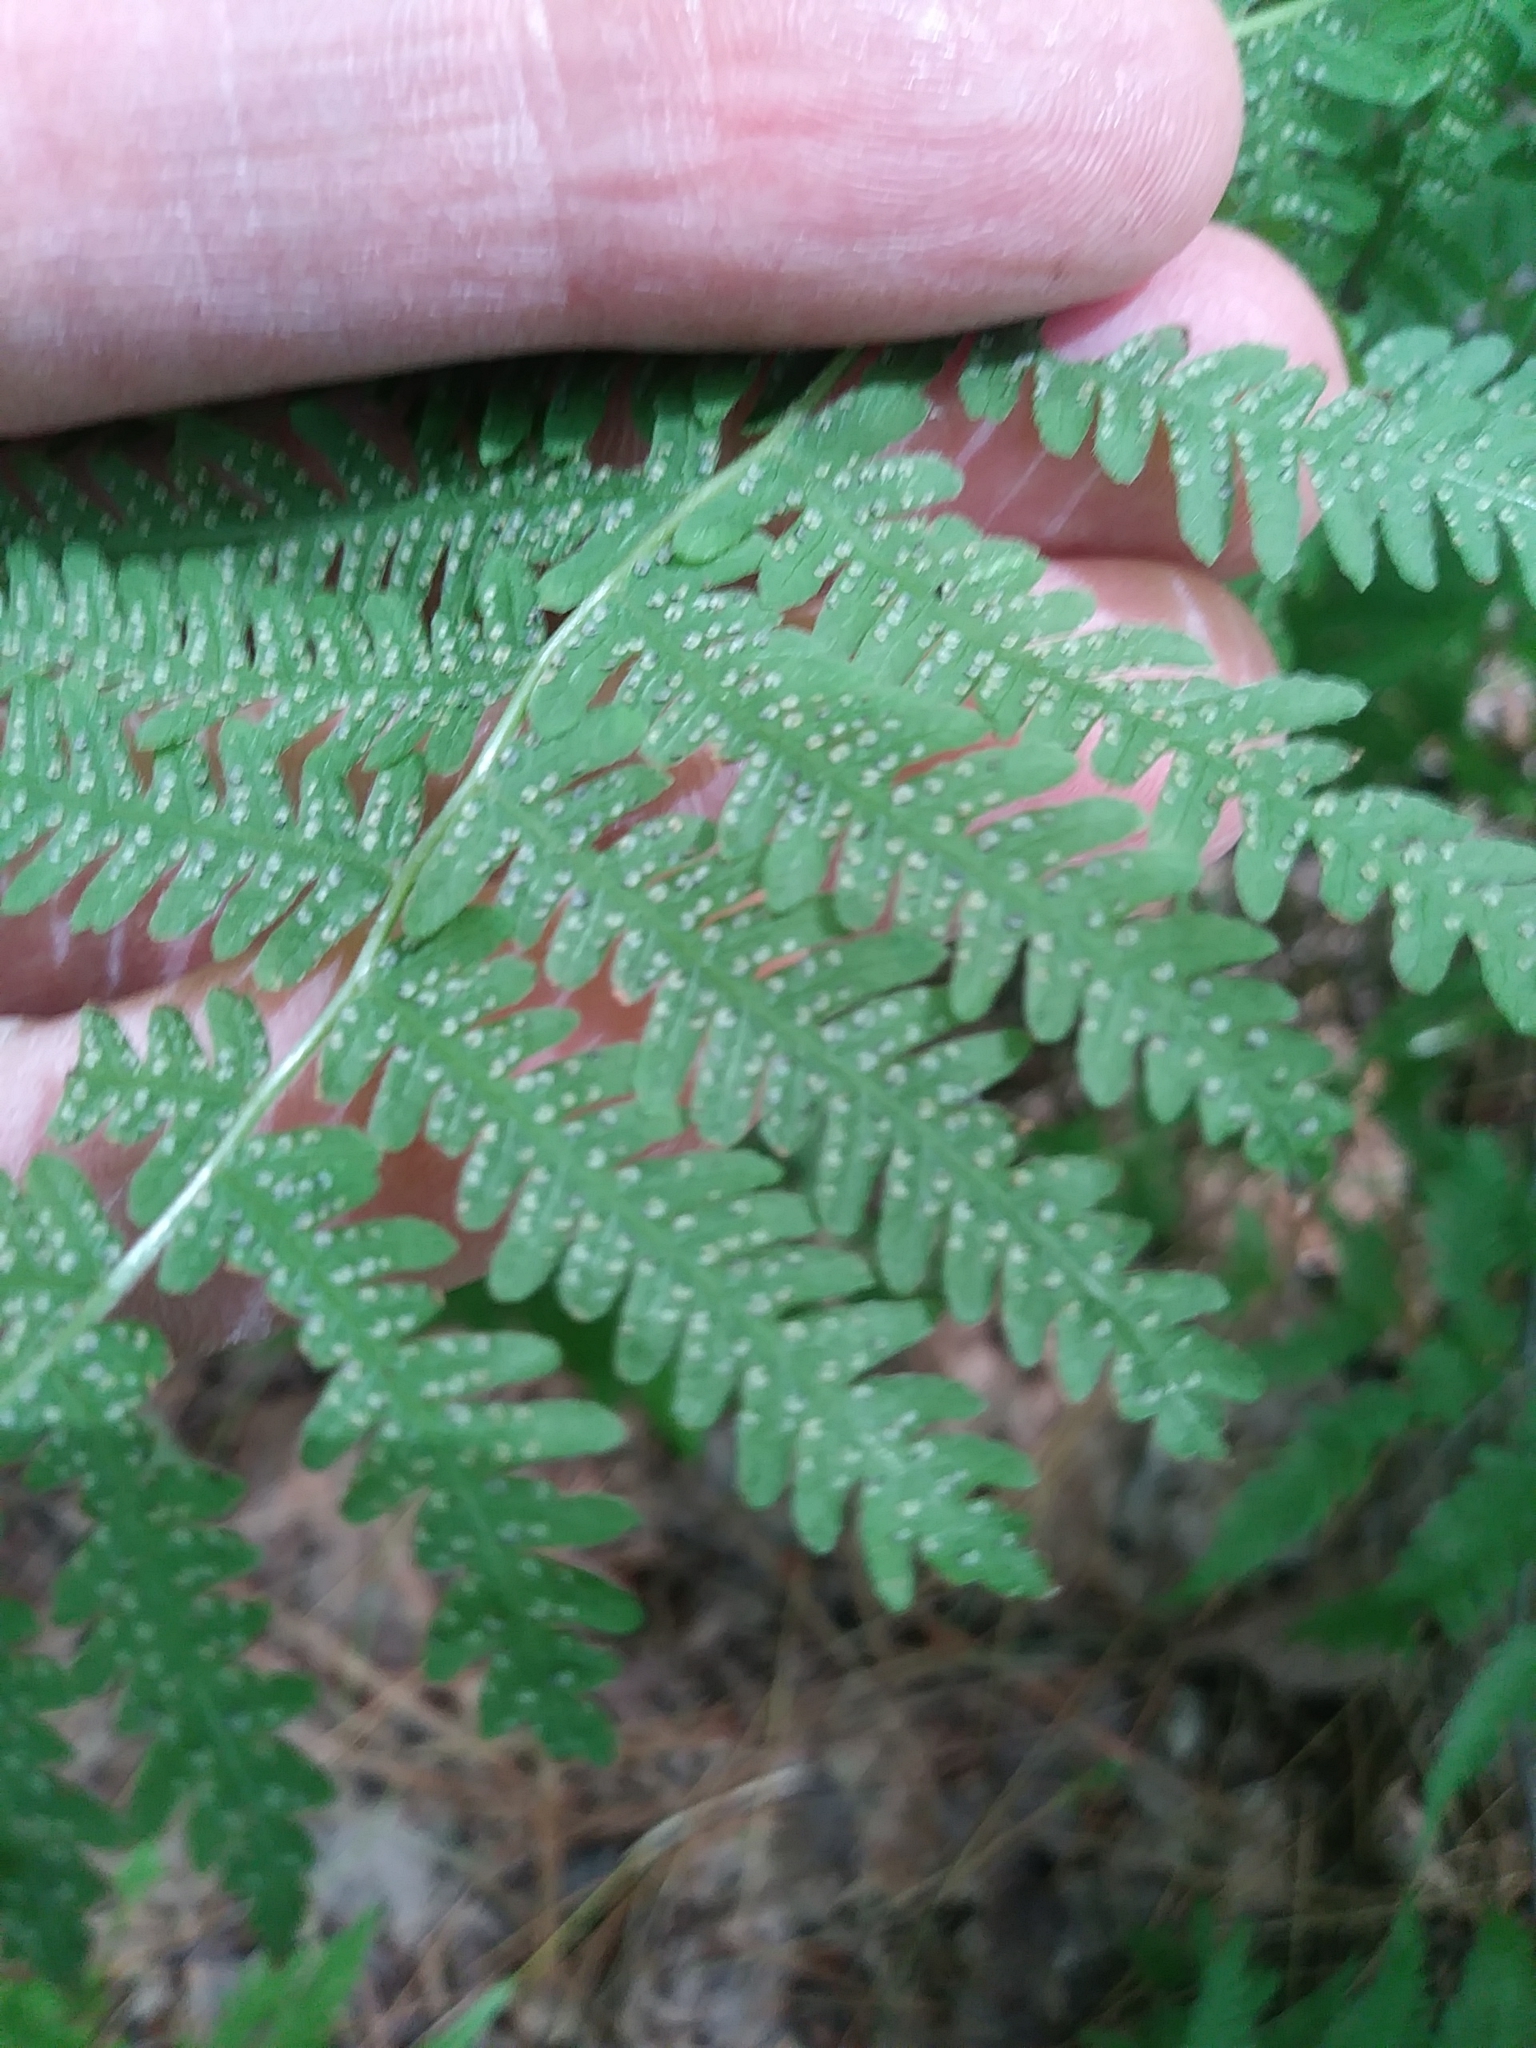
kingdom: Plantae
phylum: Tracheophyta
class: Polypodiopsida
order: Polypodiales
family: Thelypteridaceae
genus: Amauropelta
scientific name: Amauropelta noveboracensis
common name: New york fern
